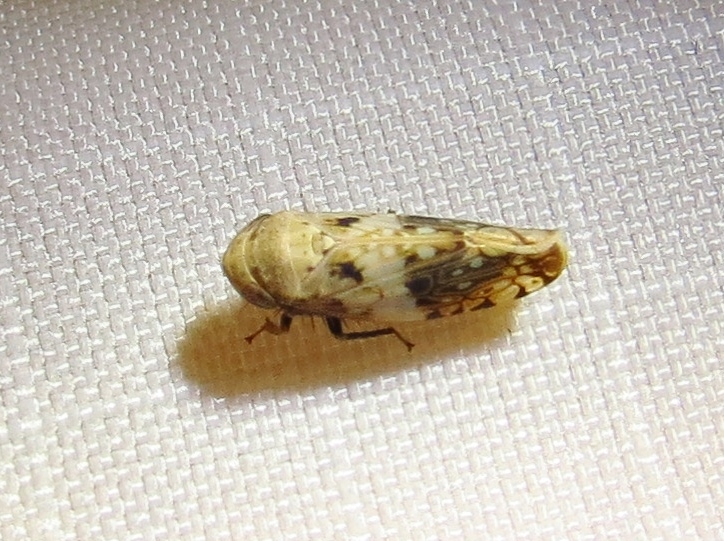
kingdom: Animalia
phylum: Arthropoda
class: Insecta
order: Hemiptera
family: Cicadellidae
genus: Menosoma
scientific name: Menosoma cinctum
